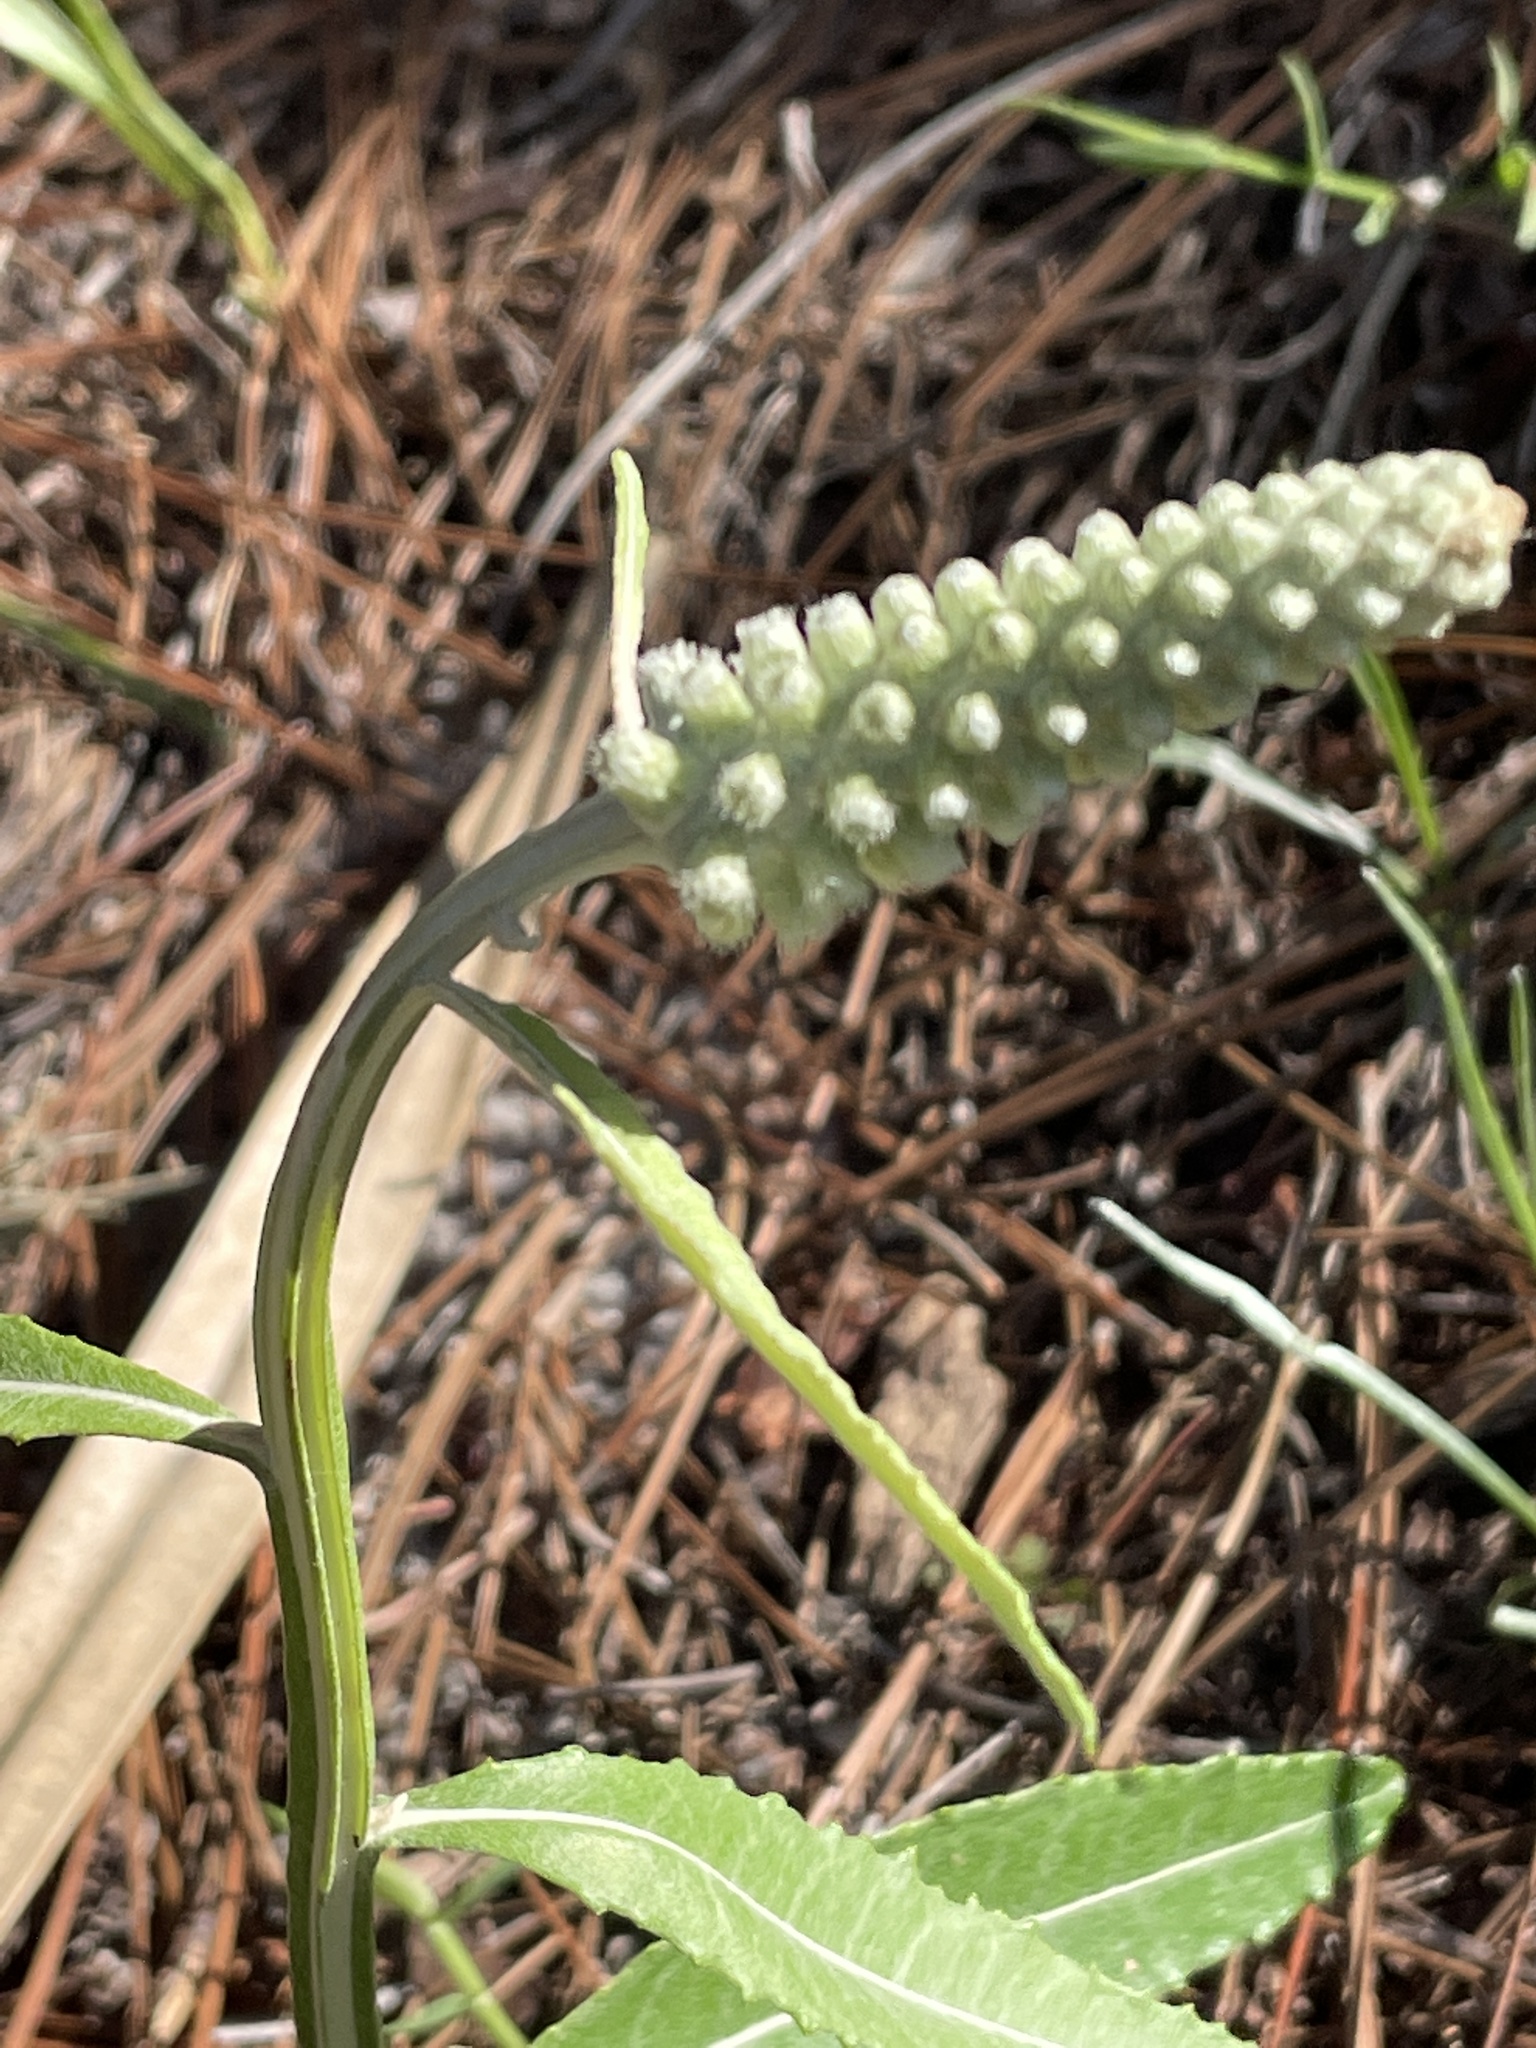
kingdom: Plantae
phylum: Tracheophyta
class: Magnoliopsida
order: Asterales
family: Asteraceae
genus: Pterocaulon
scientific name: Pterocaulon pycnostachyum
